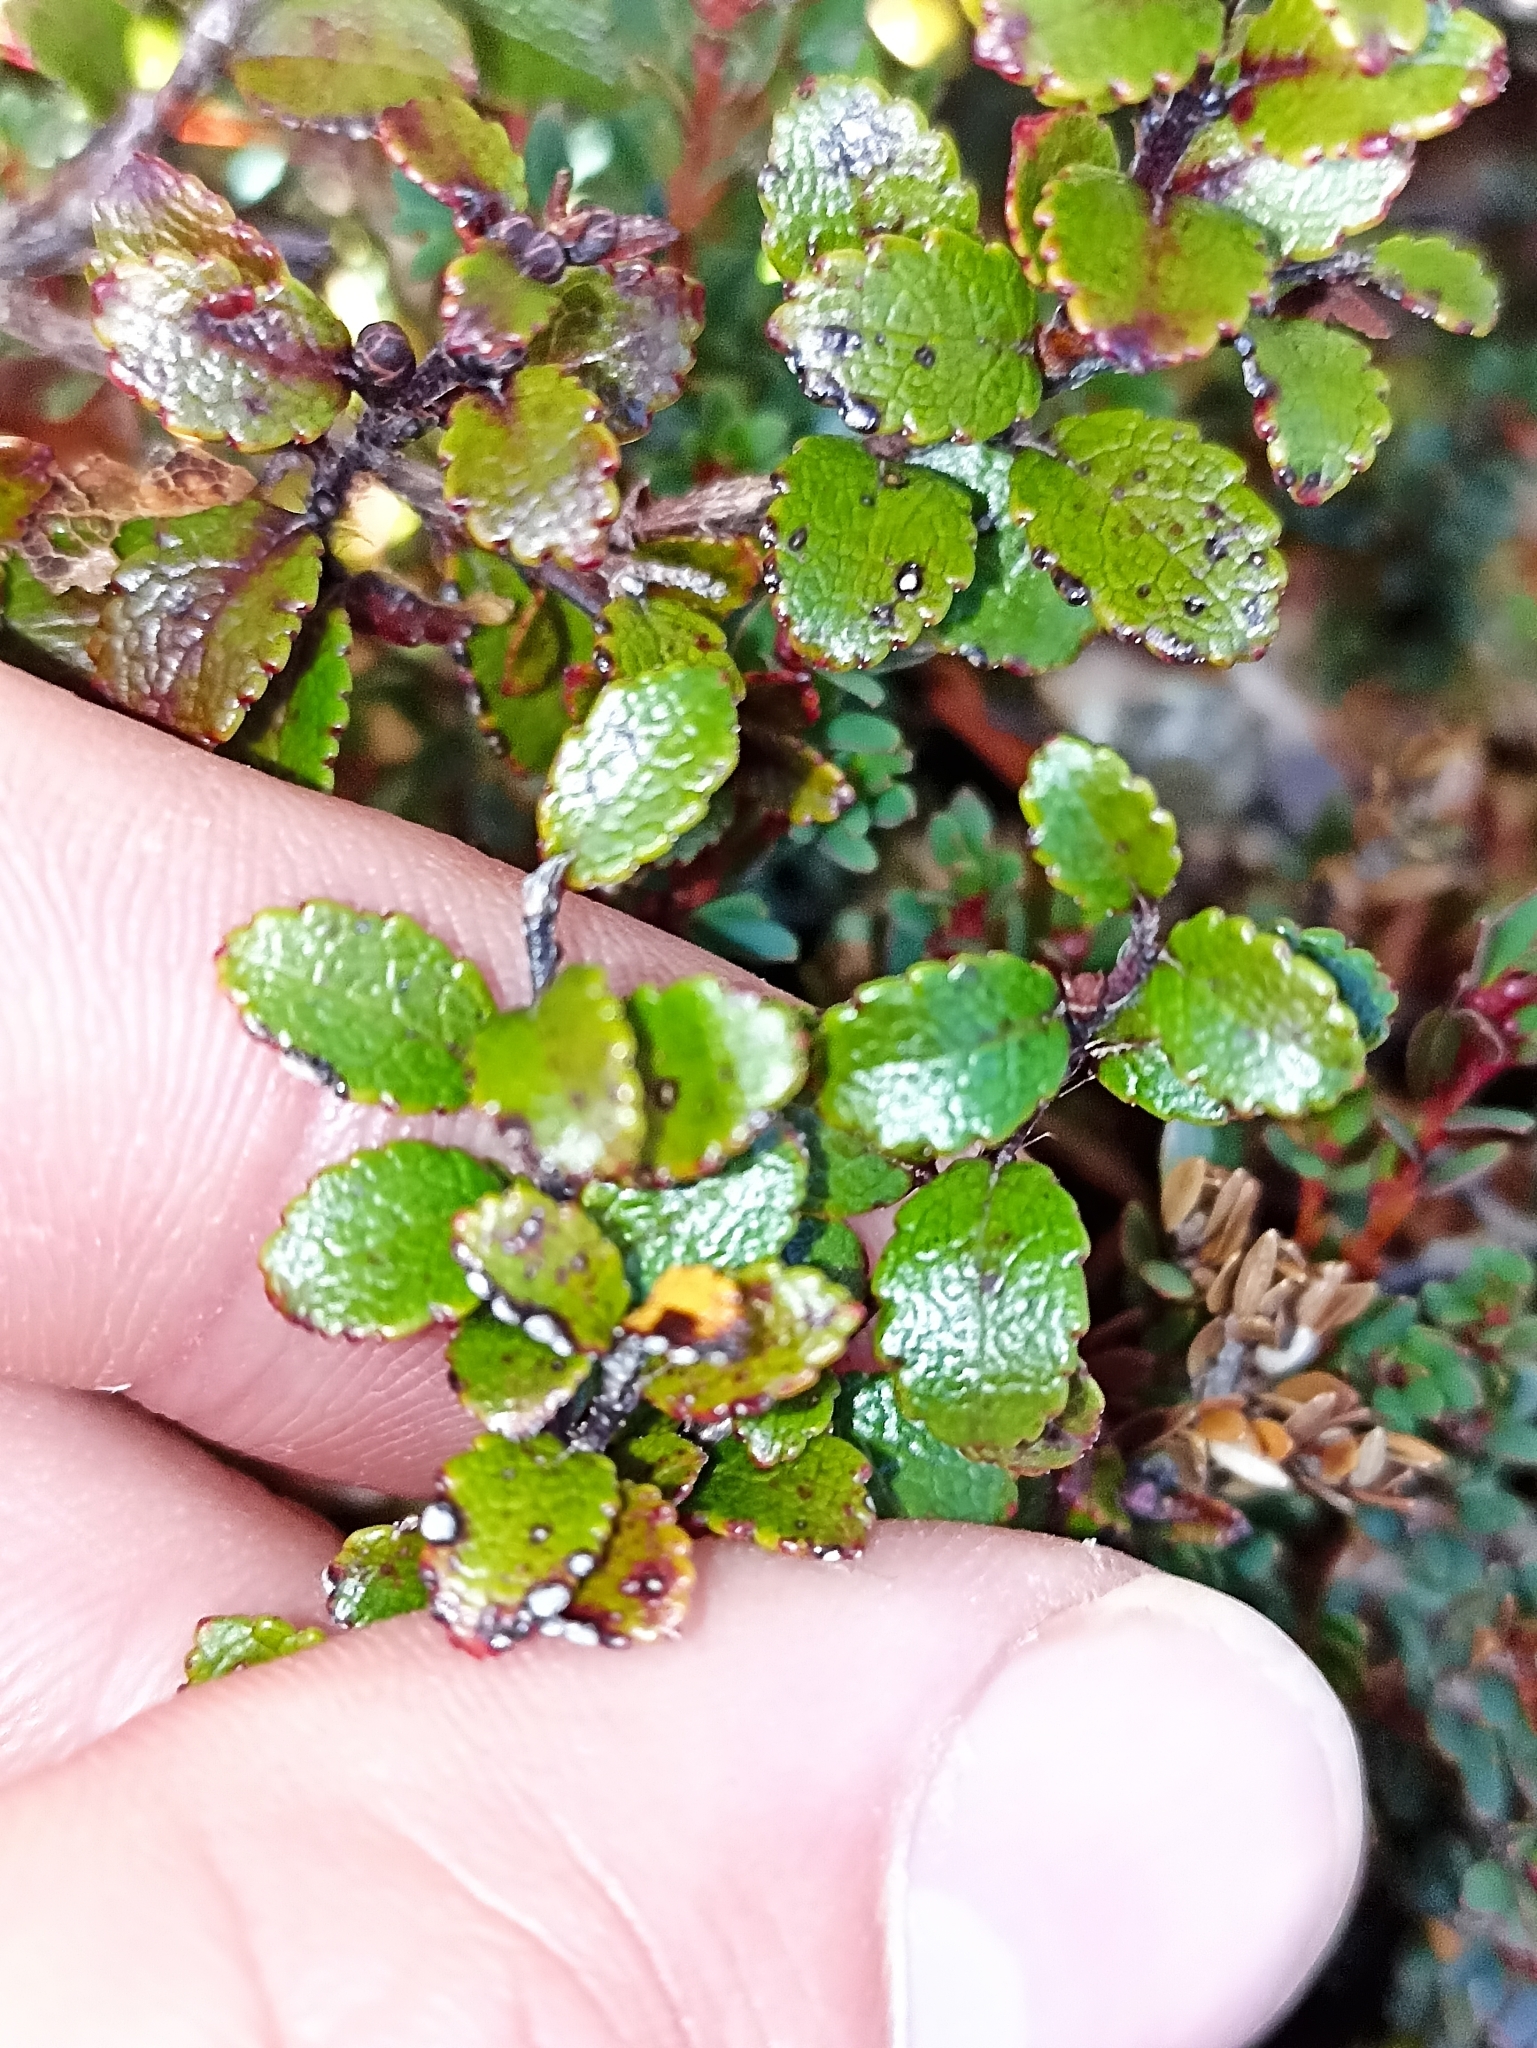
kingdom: Plantae
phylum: Tracheophyta
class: Magnoliopsida
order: Ericales
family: Ericaceae
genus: Gaultheria
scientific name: Gaultheria colensoi
